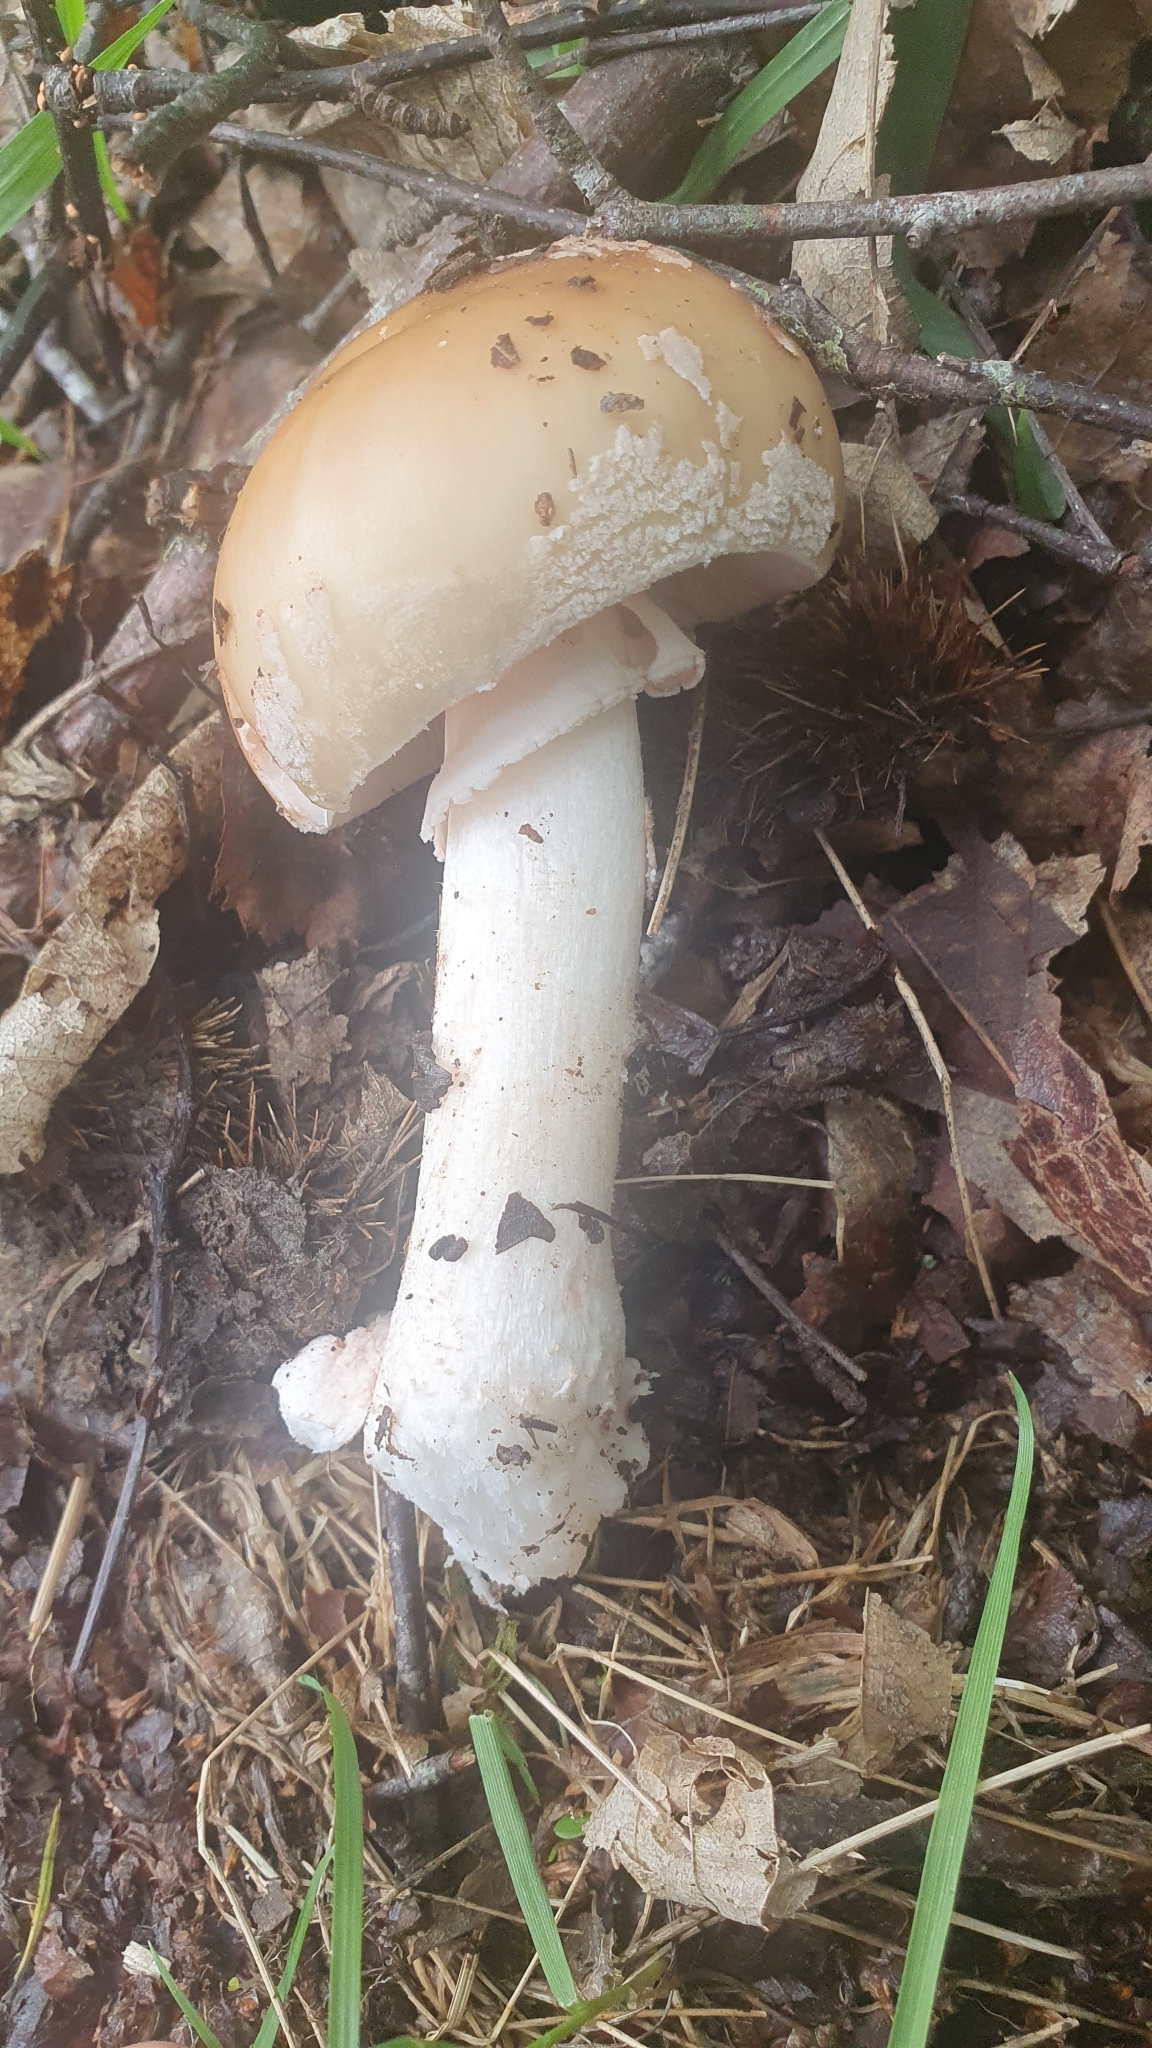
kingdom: Fungi
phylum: Basidiomycota
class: Agaricomycetes
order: Agaricales
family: Amanitaceae
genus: Amanita
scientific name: Amanita rubescens
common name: Blusher
